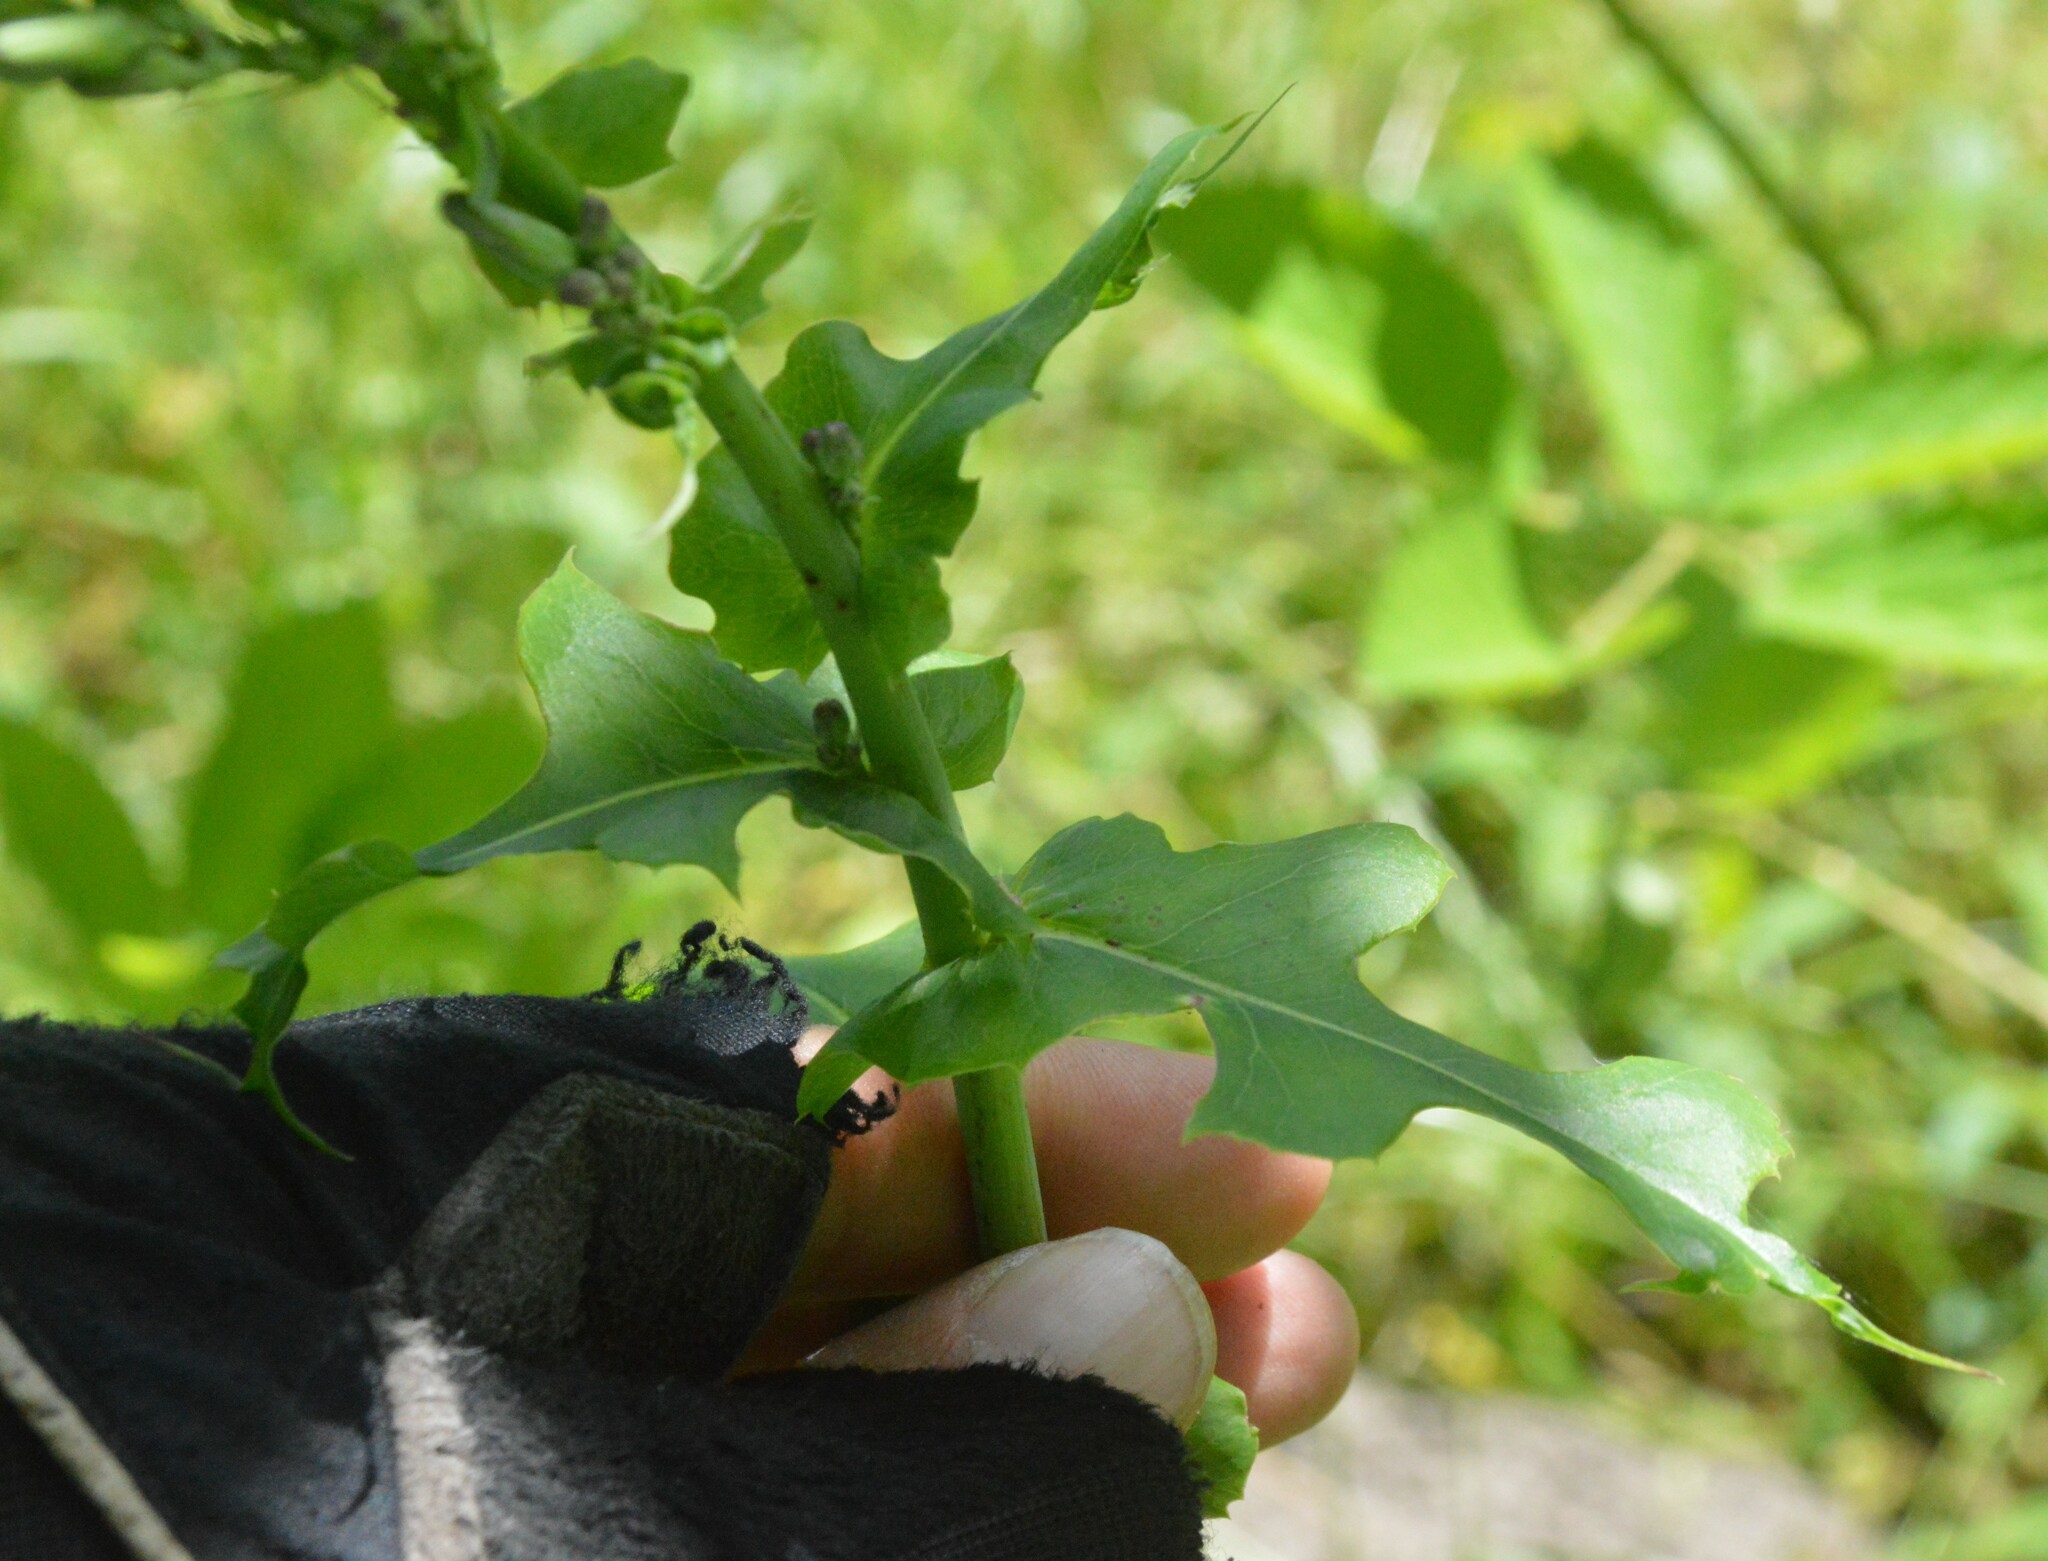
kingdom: Plantae
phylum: Tracheophyta
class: Magnoliopsida
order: Asterales
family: Asteraceae
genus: Lactuca
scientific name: Lactuca ludoviciana
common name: Louisiana lettuce
